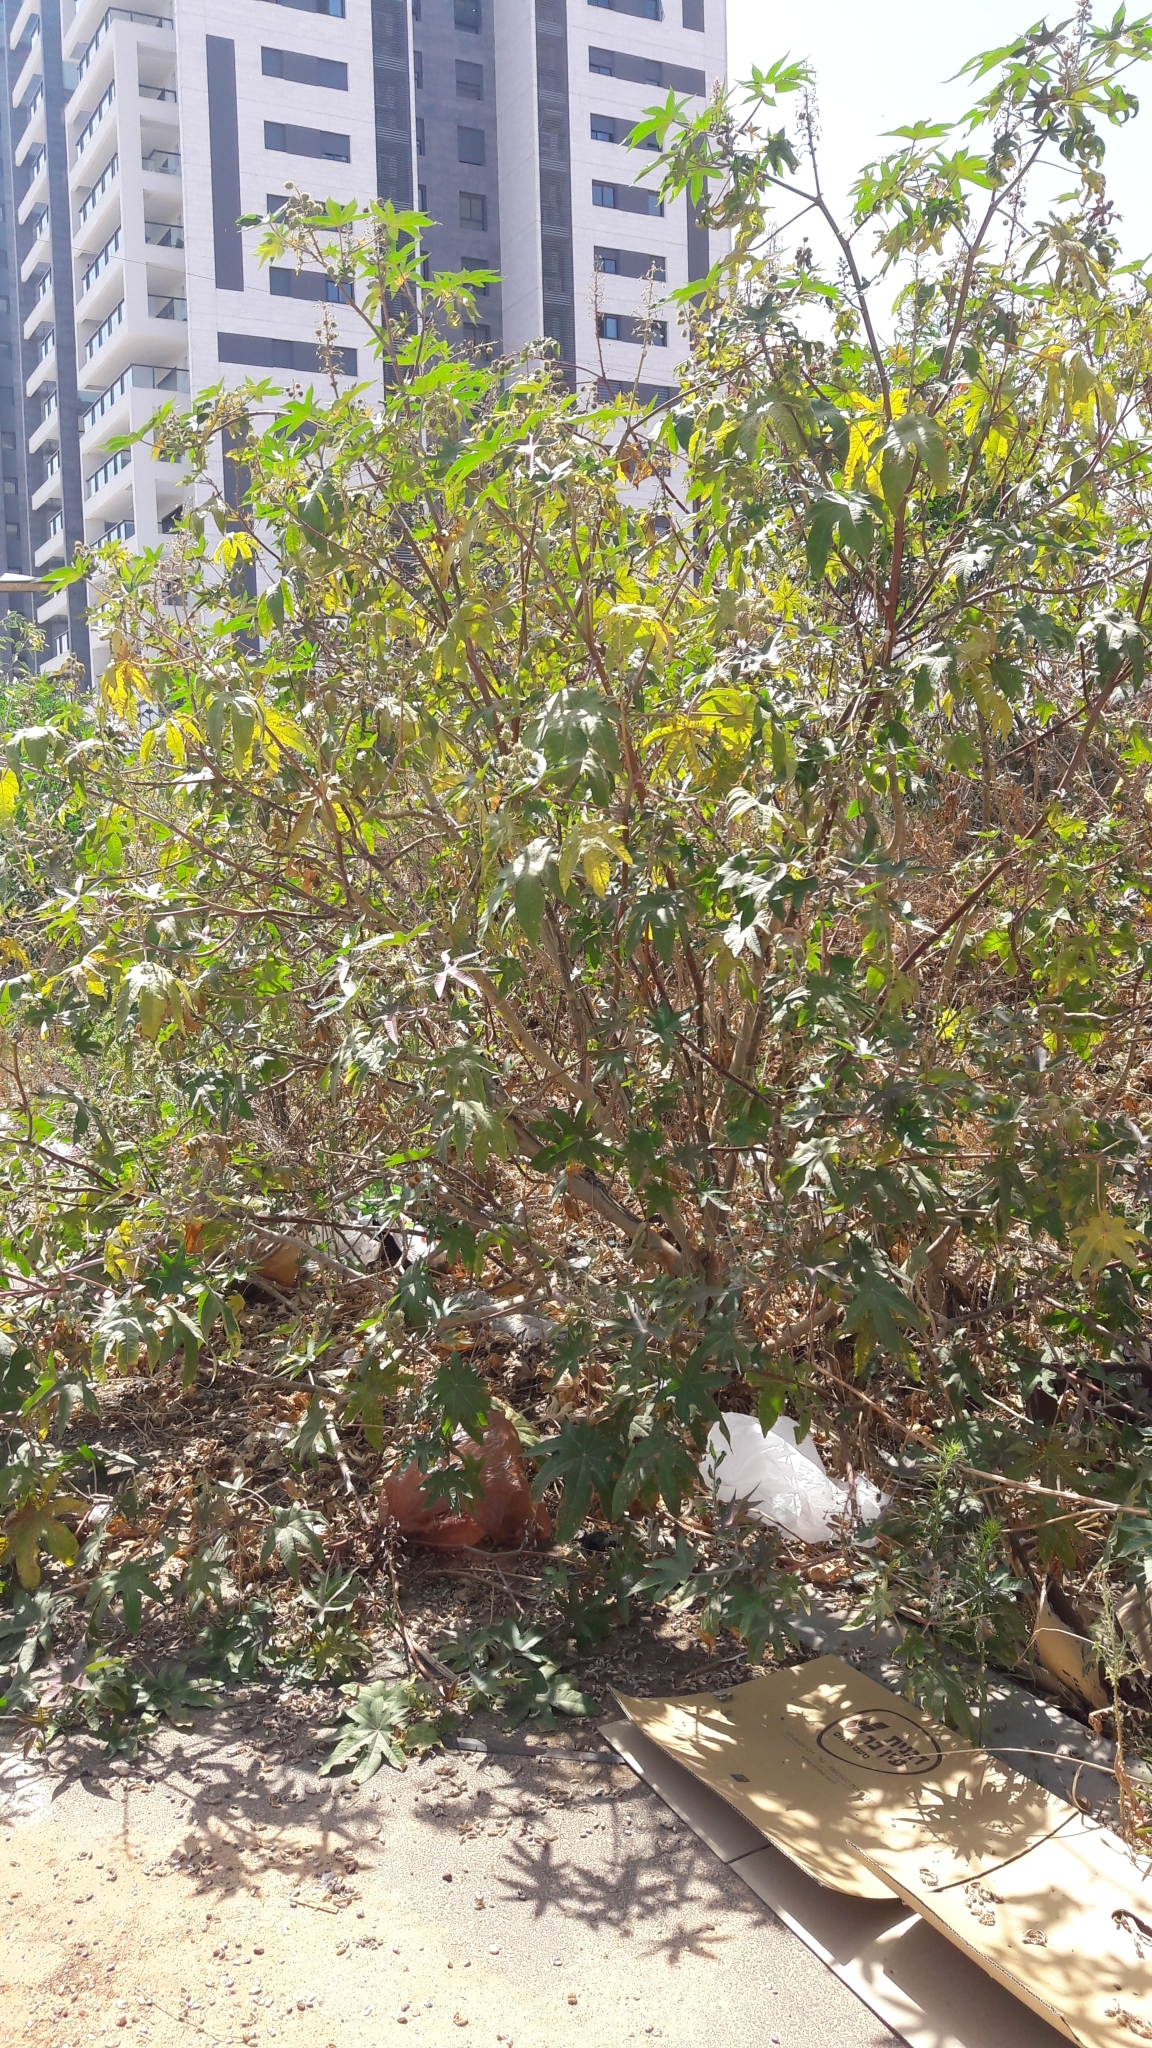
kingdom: Plantae
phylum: Tracheophyta
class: Magnoliopsida
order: Malpighiales
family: Euphorbiaceae
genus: Ricinus
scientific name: Ricinus communis
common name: Castor-oil-plant
